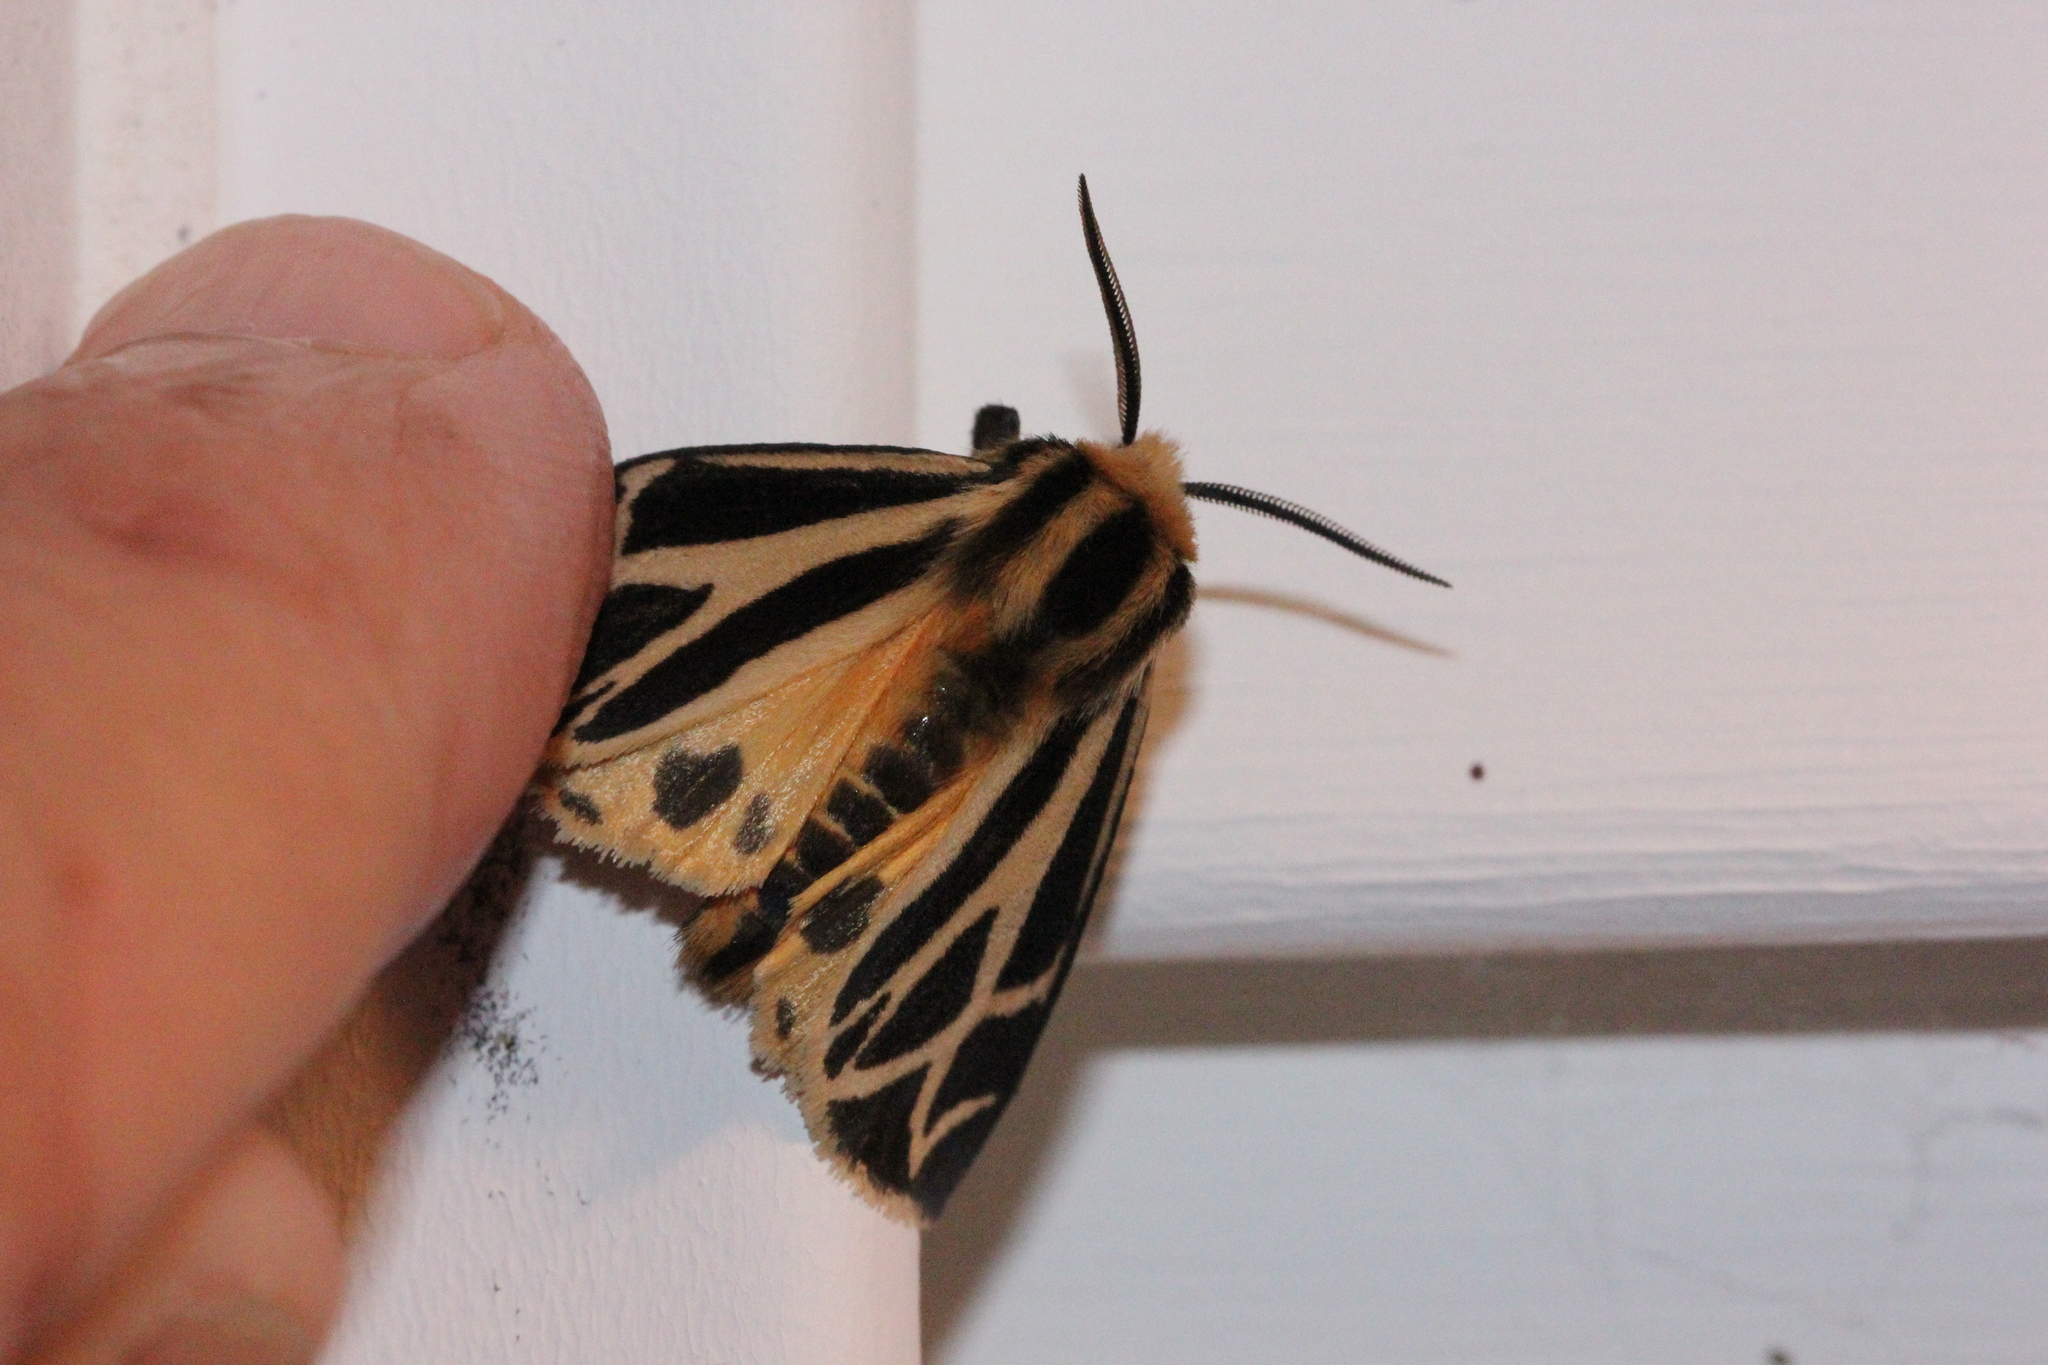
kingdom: Animalia
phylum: Arthropoda
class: Insecta
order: Lepidoptera
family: Erebidae
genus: Apantesis
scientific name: Apantesis carlotta
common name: Carlotta's tiger moth
